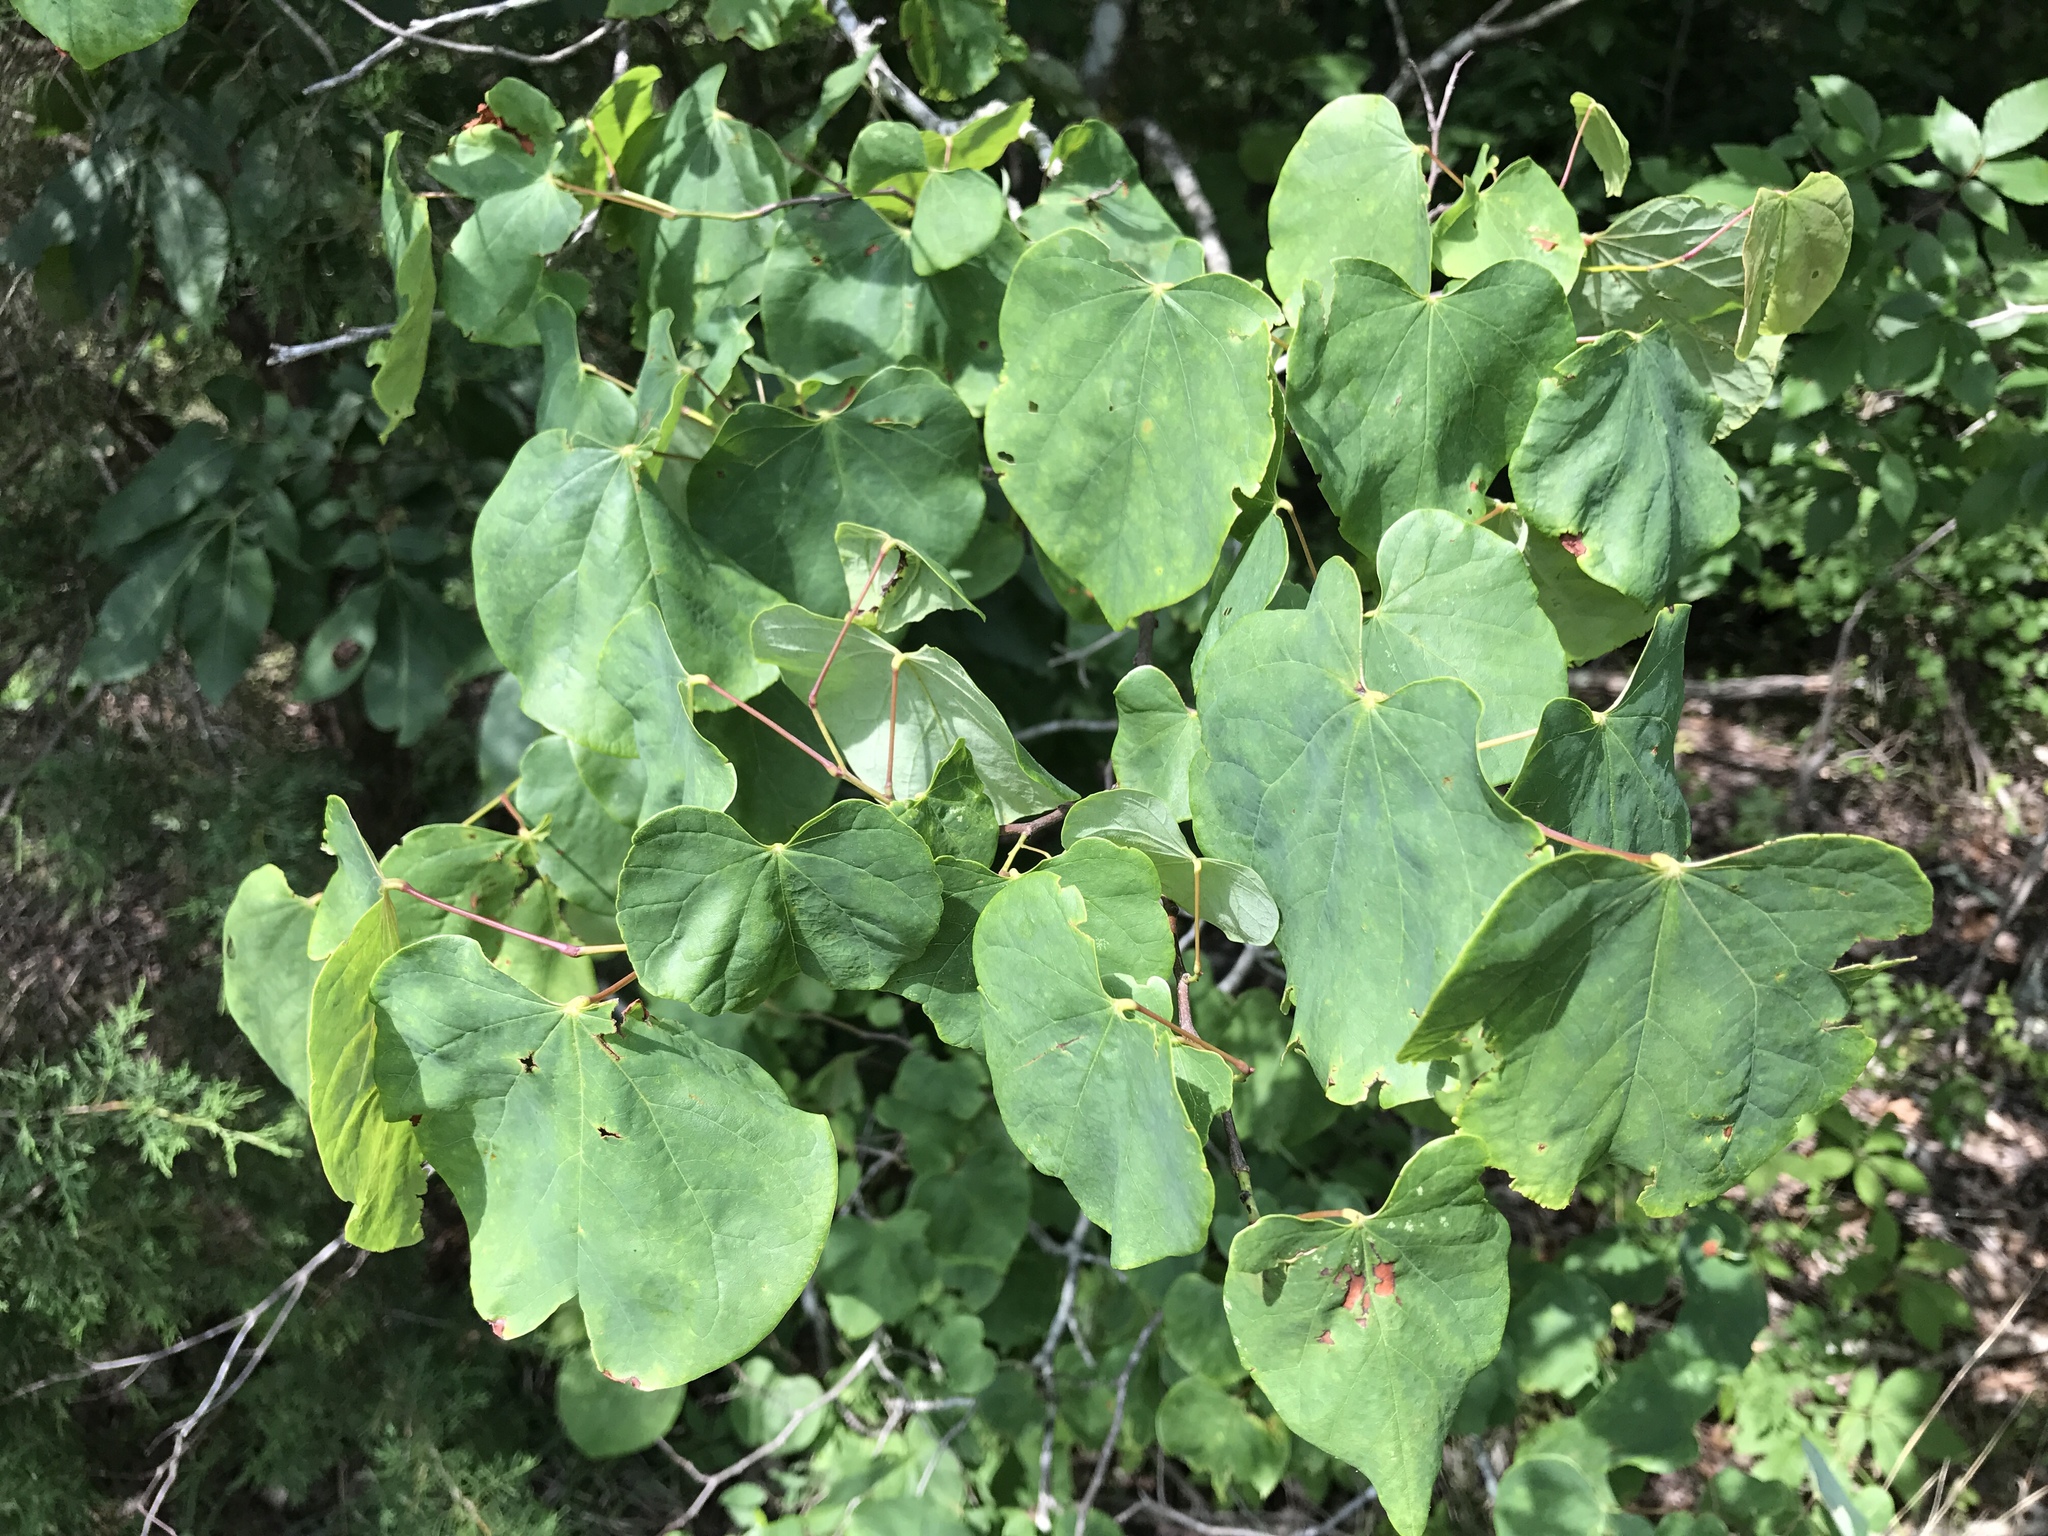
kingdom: Plantae
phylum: Tracheophyta
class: Magnoliopsida
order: Fabales
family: Fabaceae
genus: Cercis
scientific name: Cercis canadensis
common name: Eastern redbud
